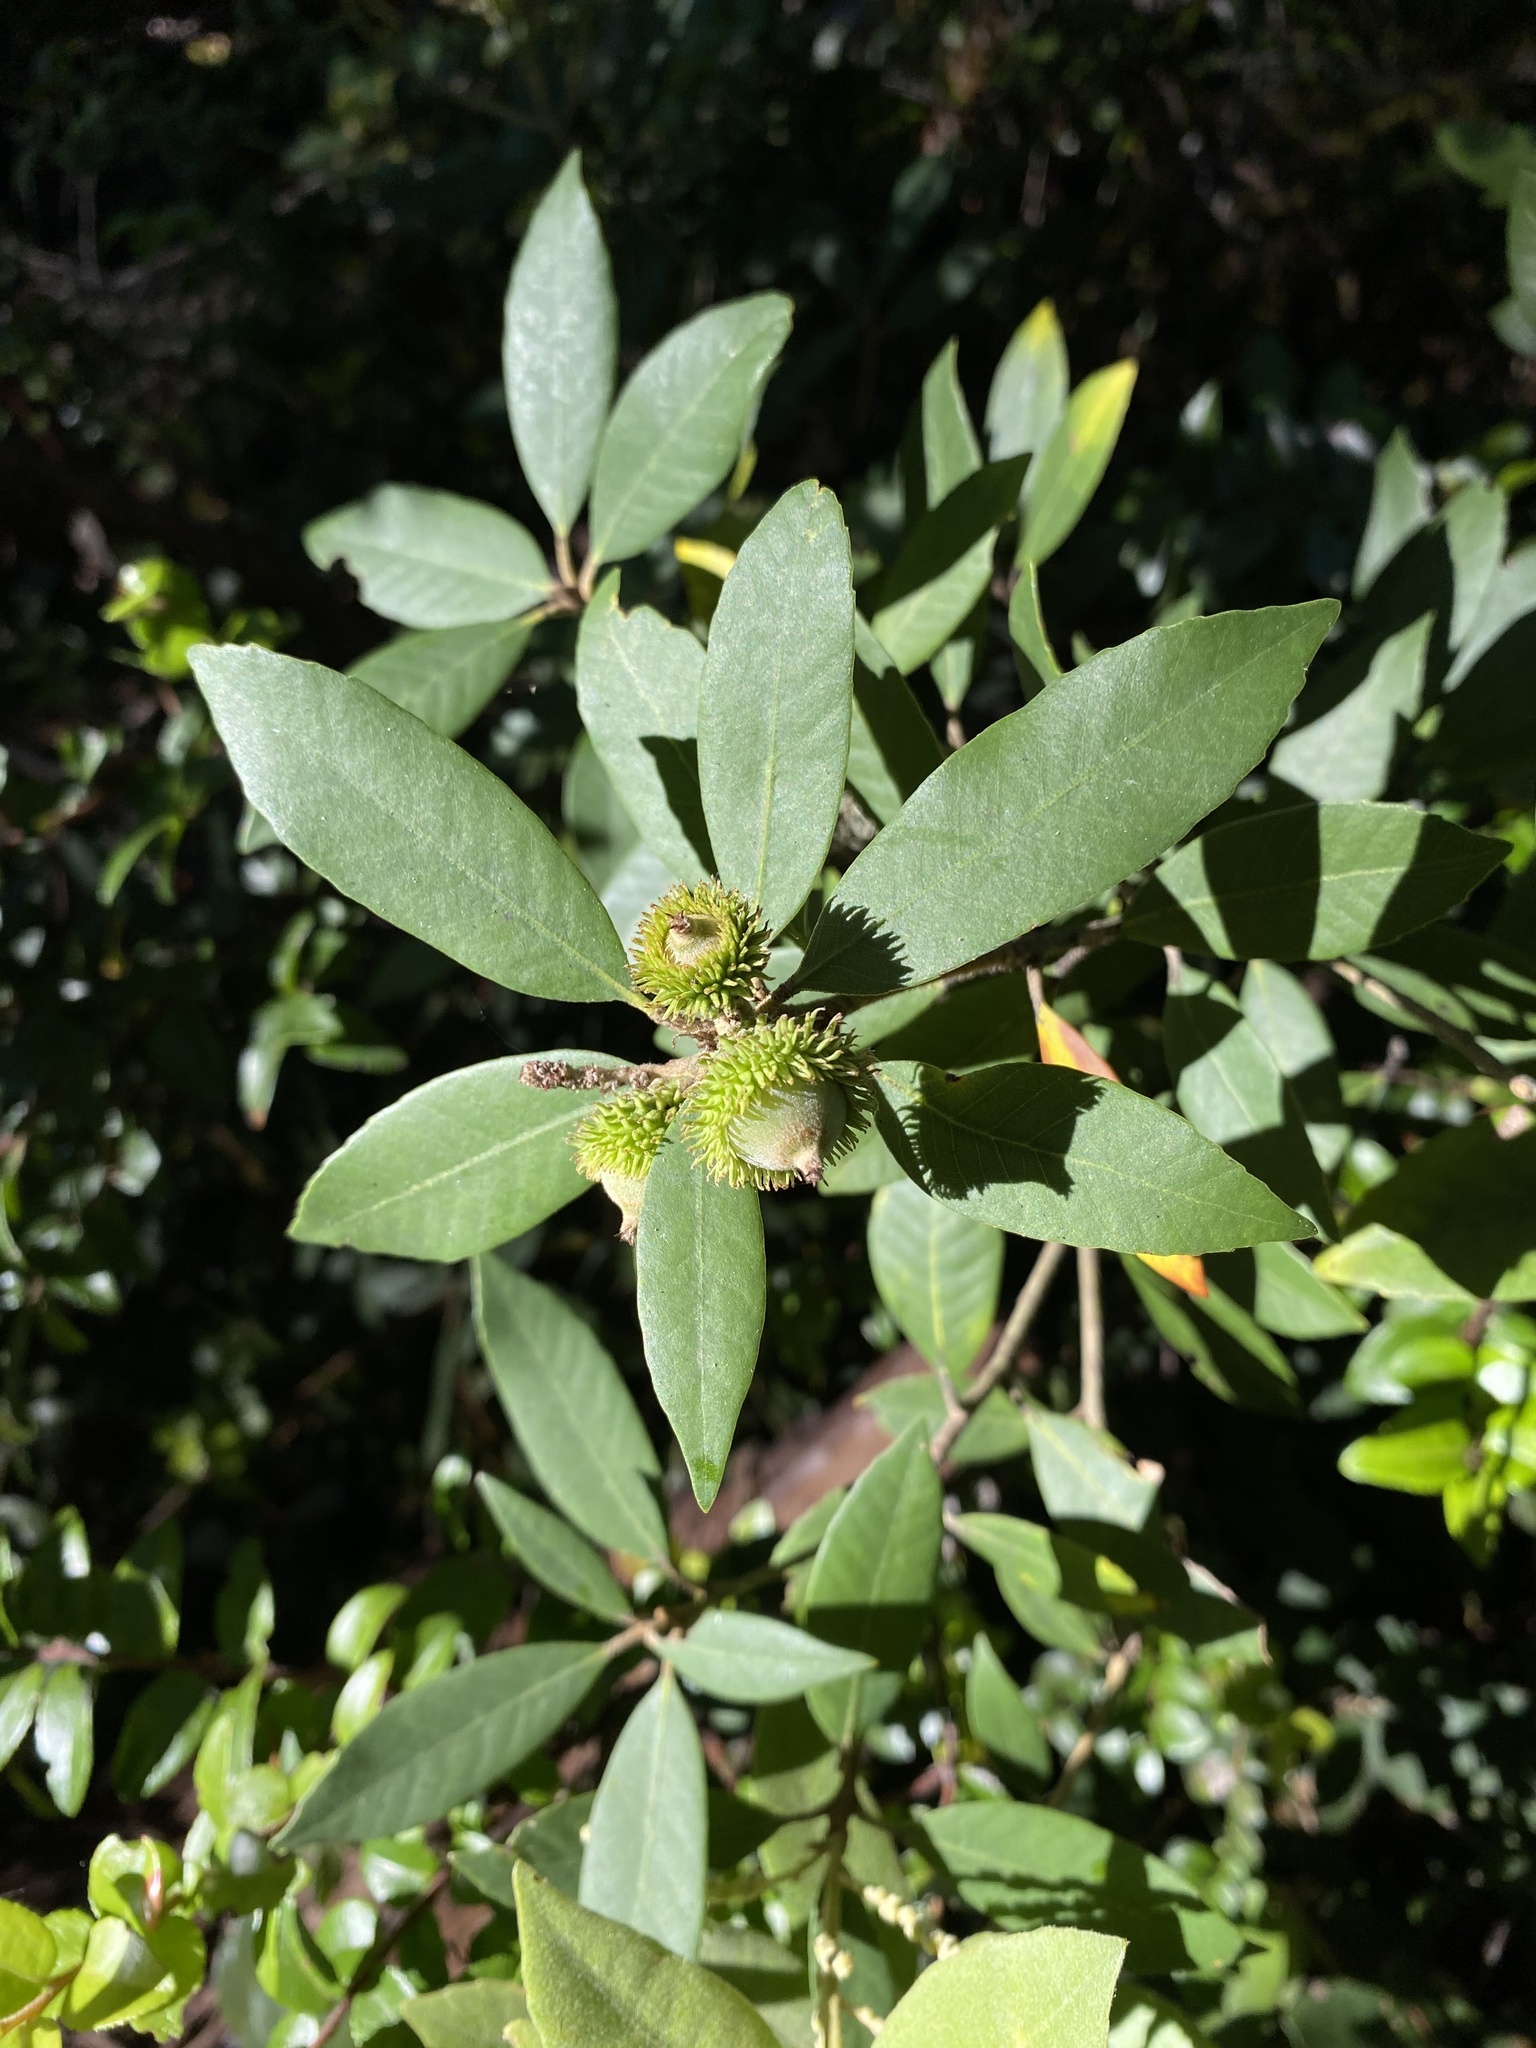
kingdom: Plantae
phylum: Tracheophyta
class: Magnoliopsida
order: Fagales
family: Fagaceae
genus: Notholithocarpus
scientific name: Notholithocarpus densiflorus
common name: Tan bark oak
